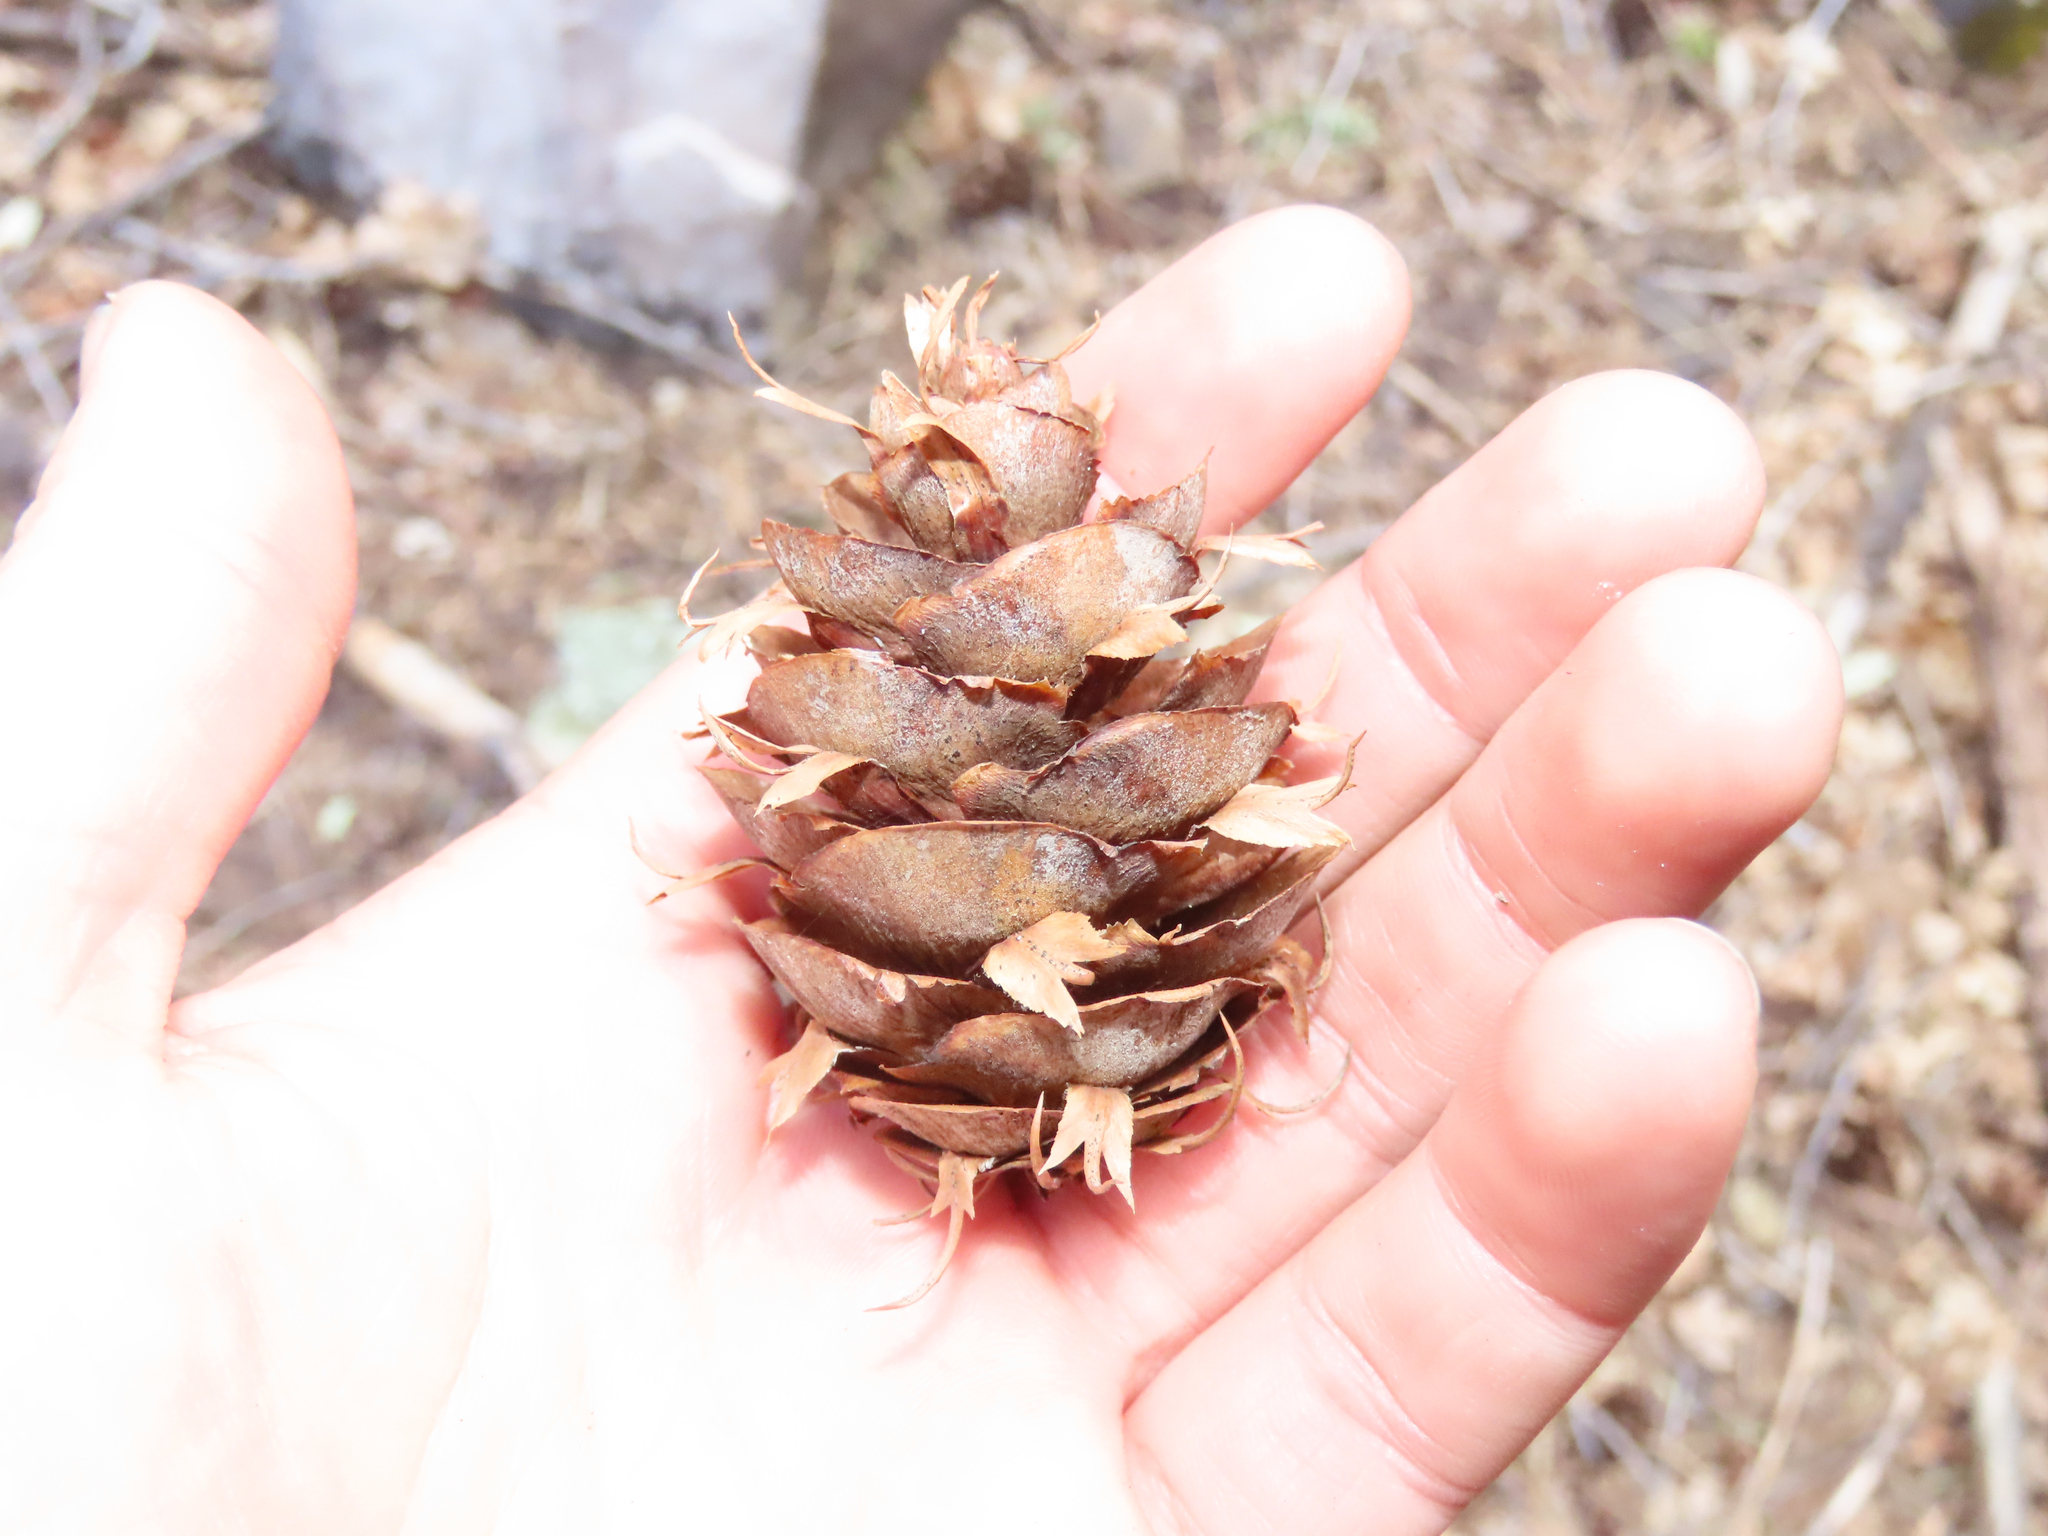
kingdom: Plantae
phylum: Tracheophyta
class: Pinopsida
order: Pinales
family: Pinaceae
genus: Pseudotsuga
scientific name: Pseudotsuga menziesii
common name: Douglas fir
